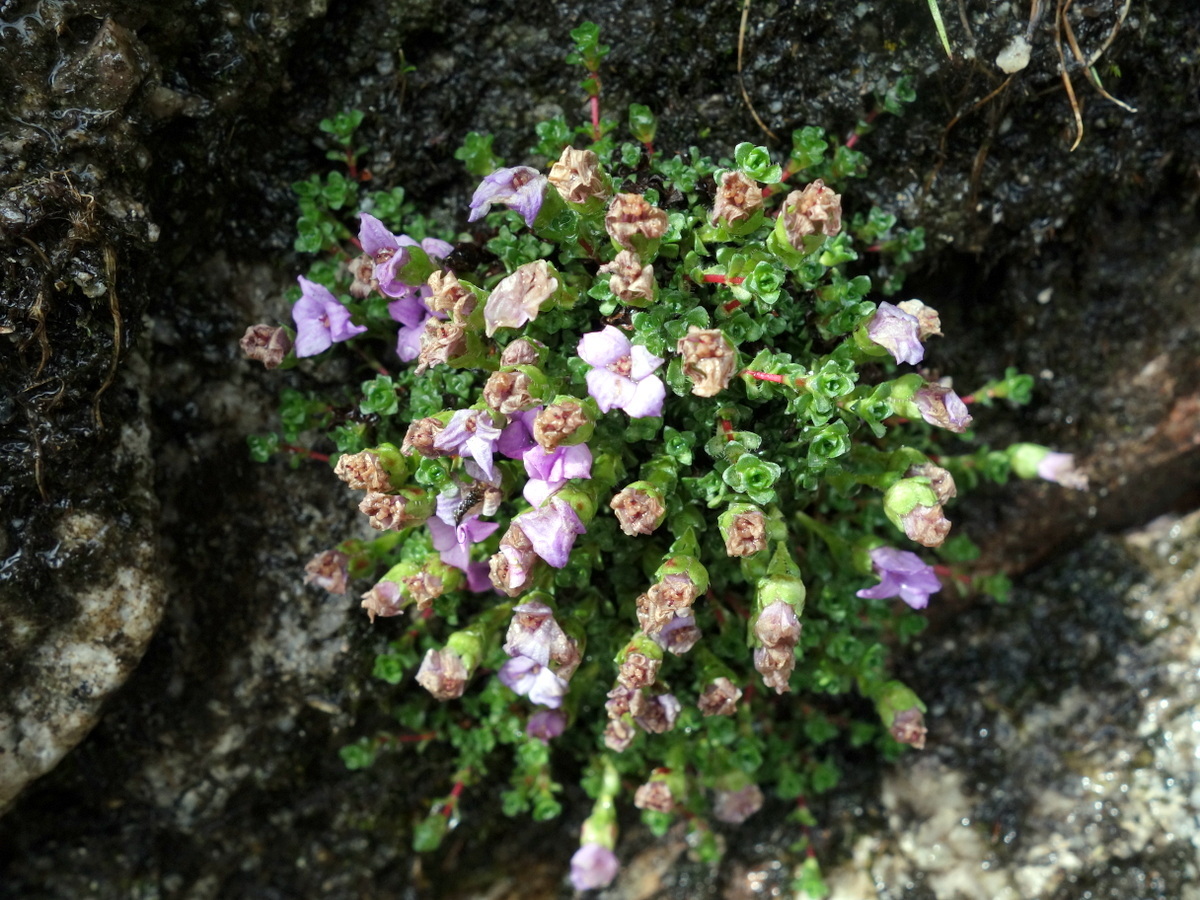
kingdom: Plantae
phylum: Tracheophyta
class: Magnoliopsida
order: Saxifragales
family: Saxifragaceae
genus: Saxifraga
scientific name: Saxifraga oppositifolia
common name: Purple saxifrage
